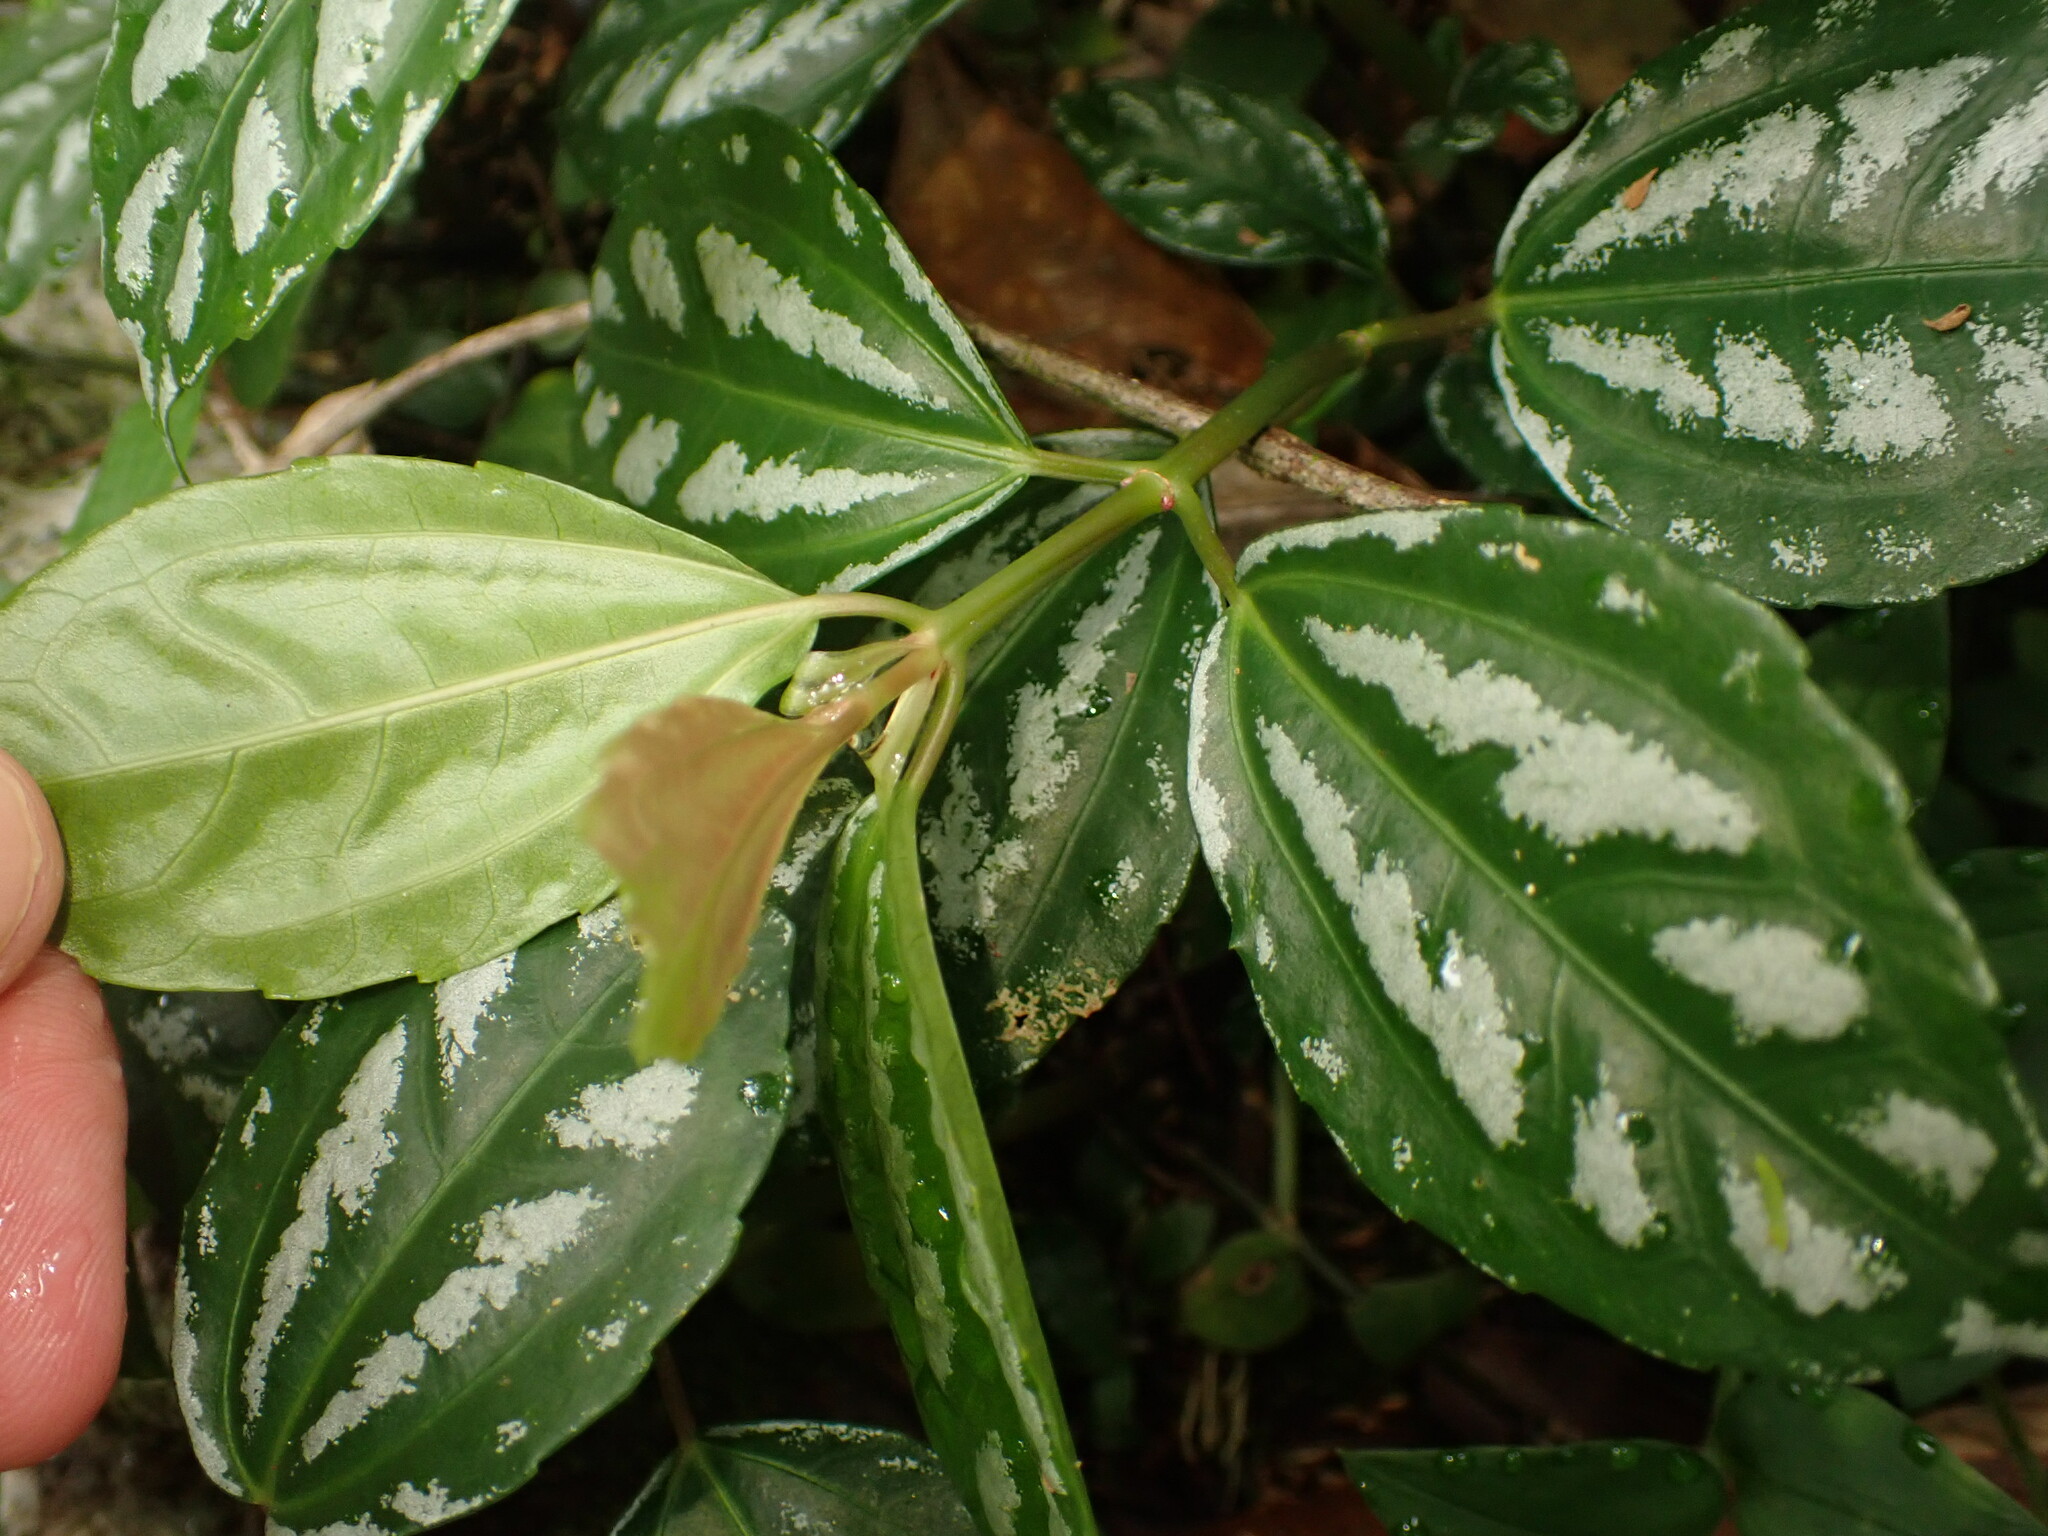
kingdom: Plantae
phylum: Tracheophyta
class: Magnoliopsida
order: Rosales
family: Urticaceae
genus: Pilea
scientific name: Pilea cadierei
